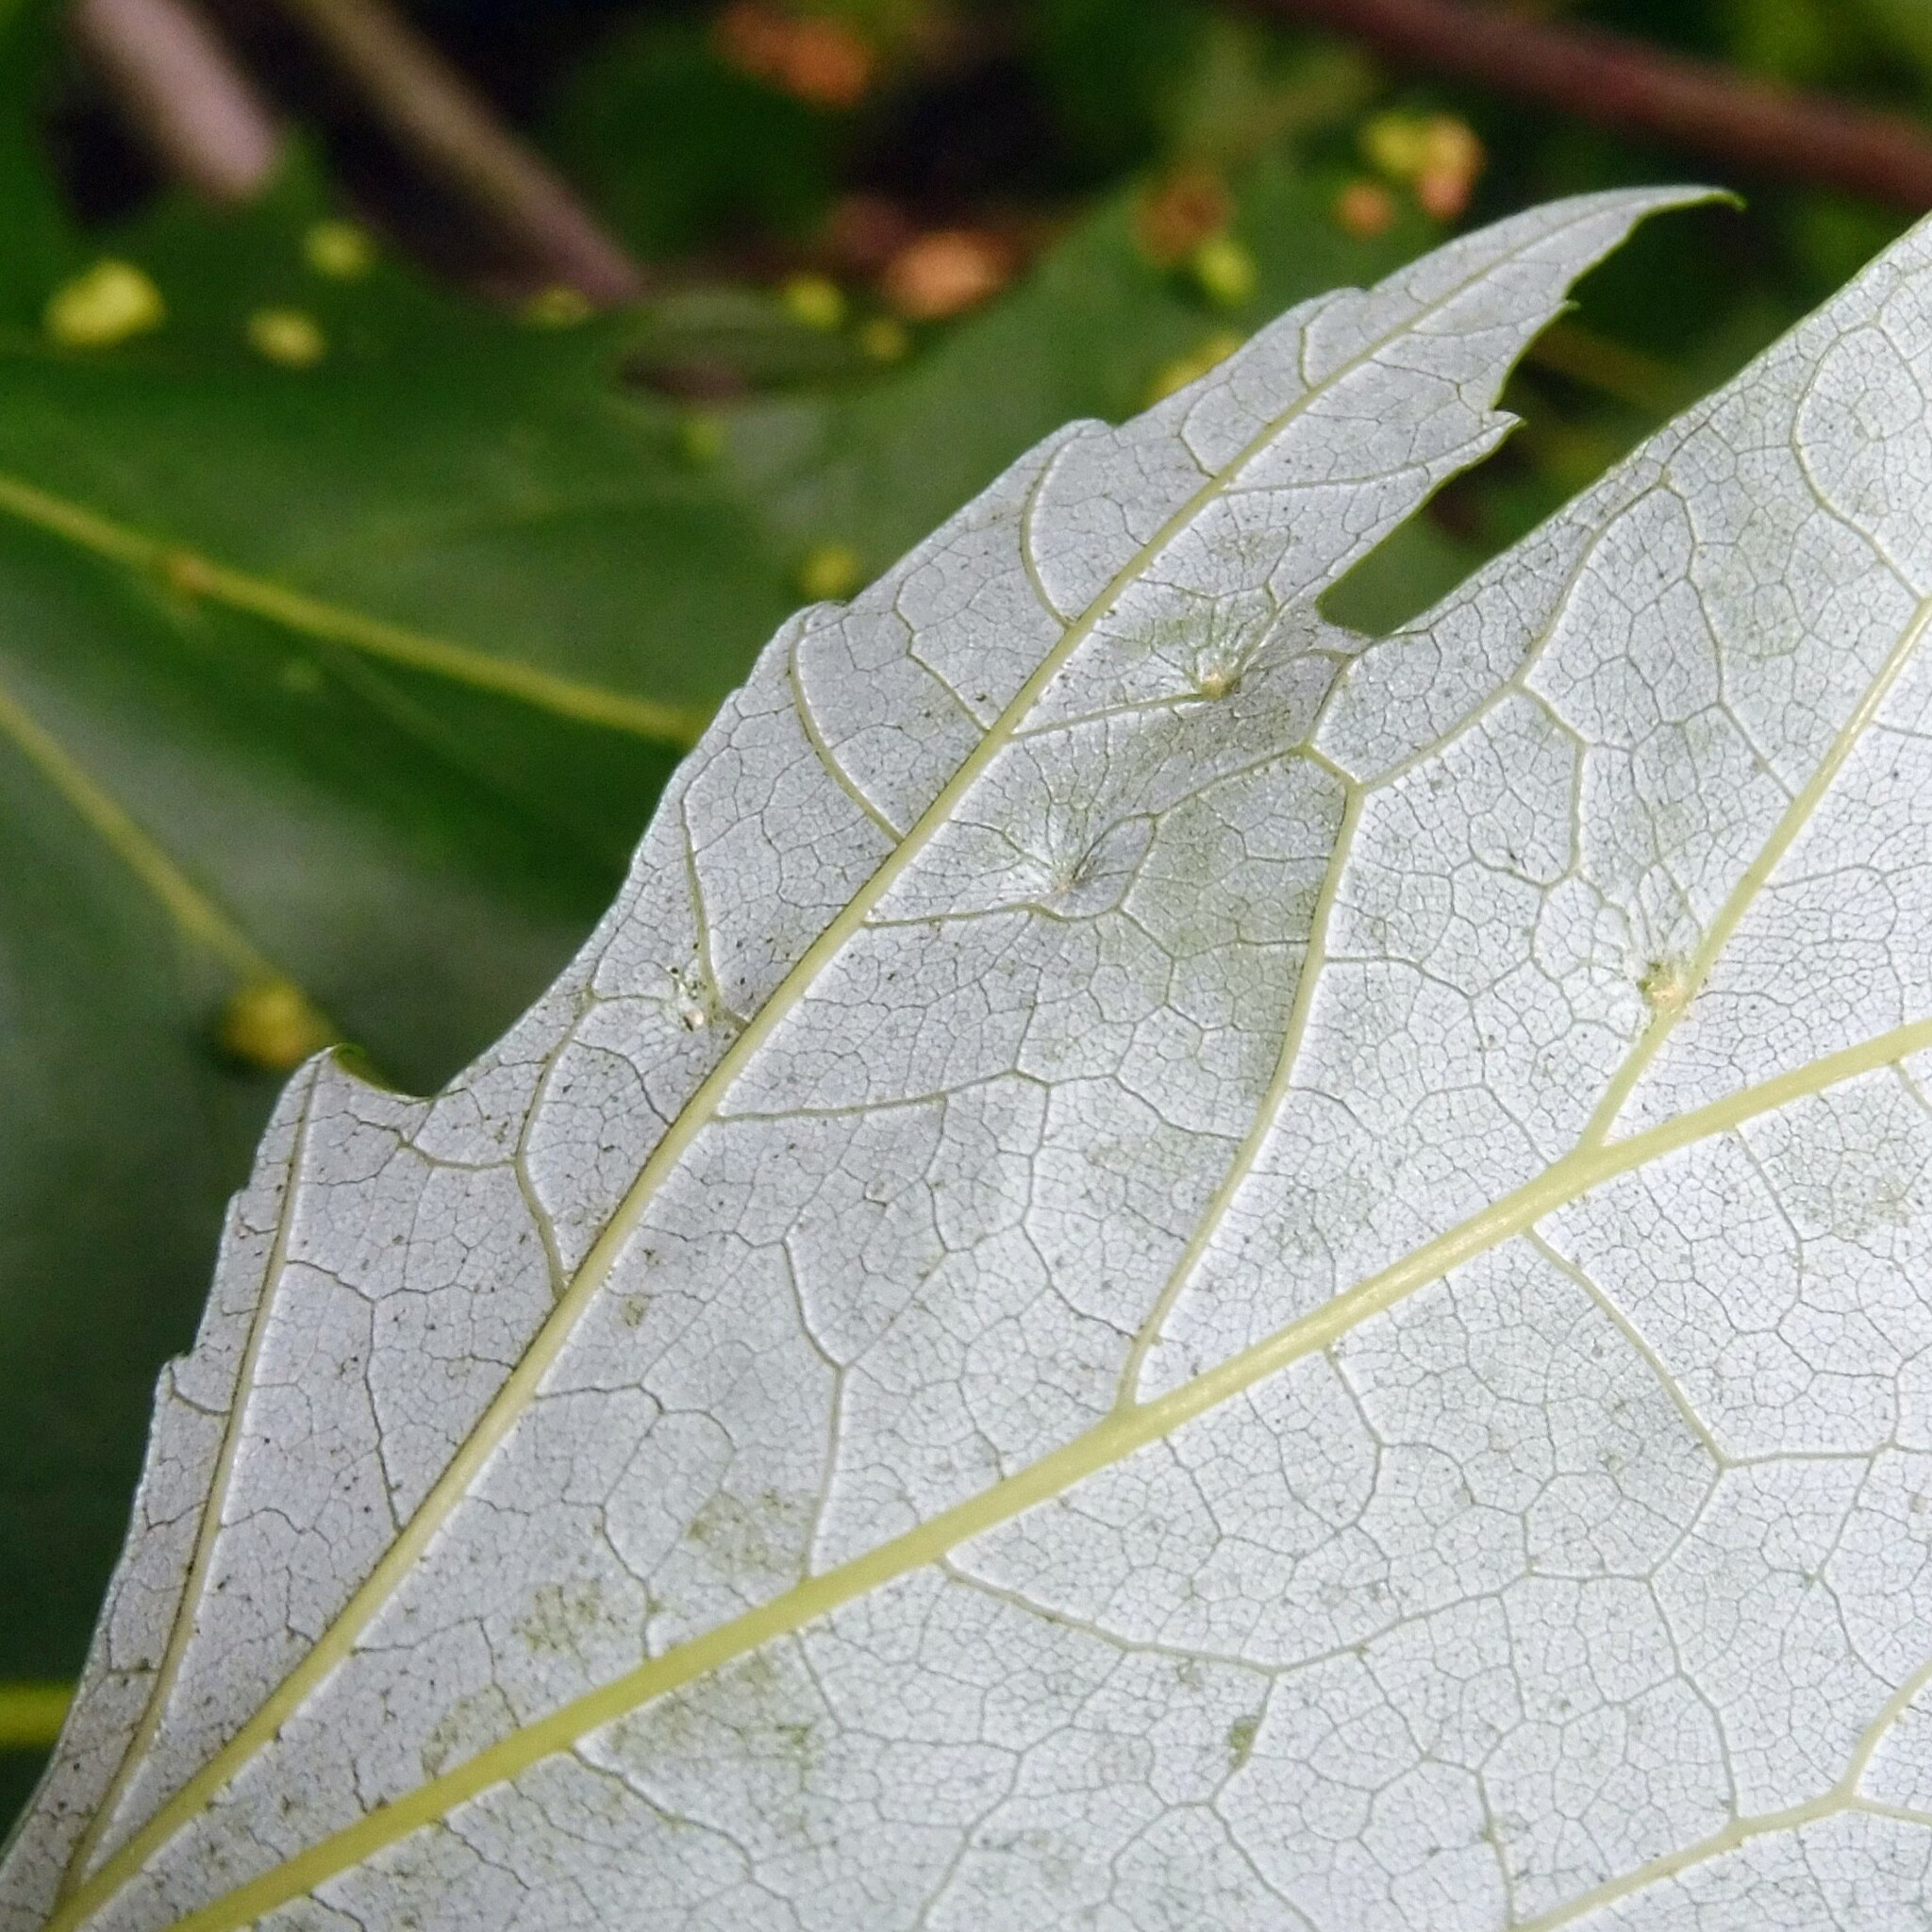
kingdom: Animalia
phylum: Arthropoda
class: Arachnida
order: Trombidiformes
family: Eriophyidae
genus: Vasates
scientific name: Vasates quadripedes
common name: Maple bladder gall mite
